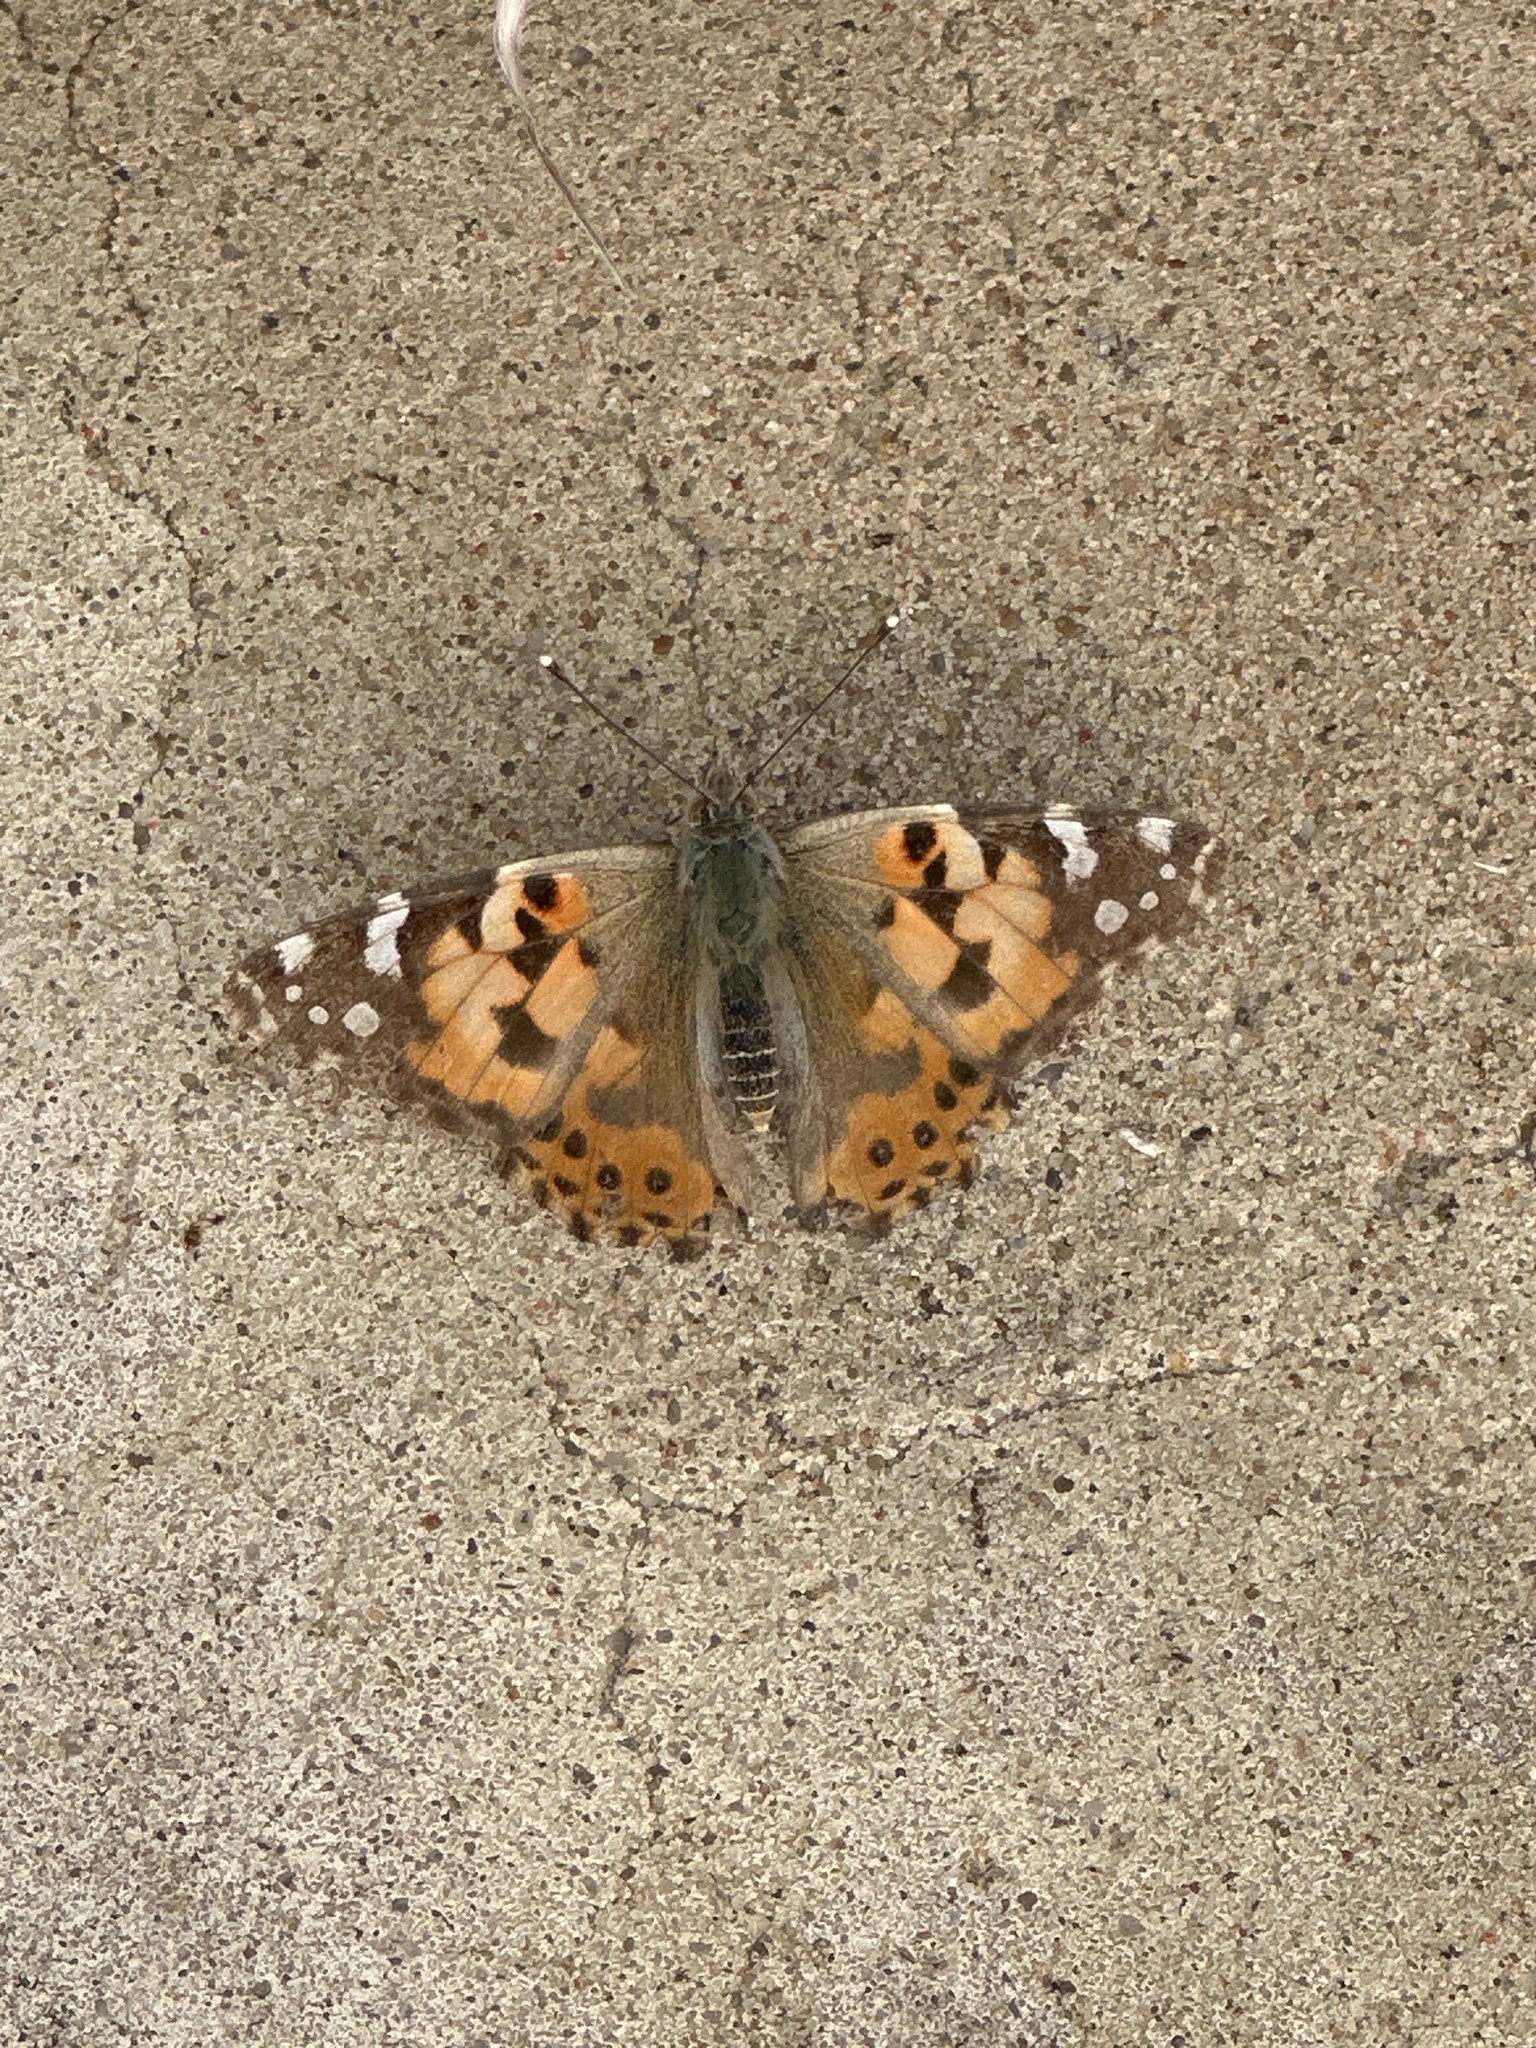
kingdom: Animalia
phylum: Arthropoda
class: Insecta
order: Lepidoptera
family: Nymphalidae
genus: Vanessa
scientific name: Vanessa cardui
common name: Painted lady
